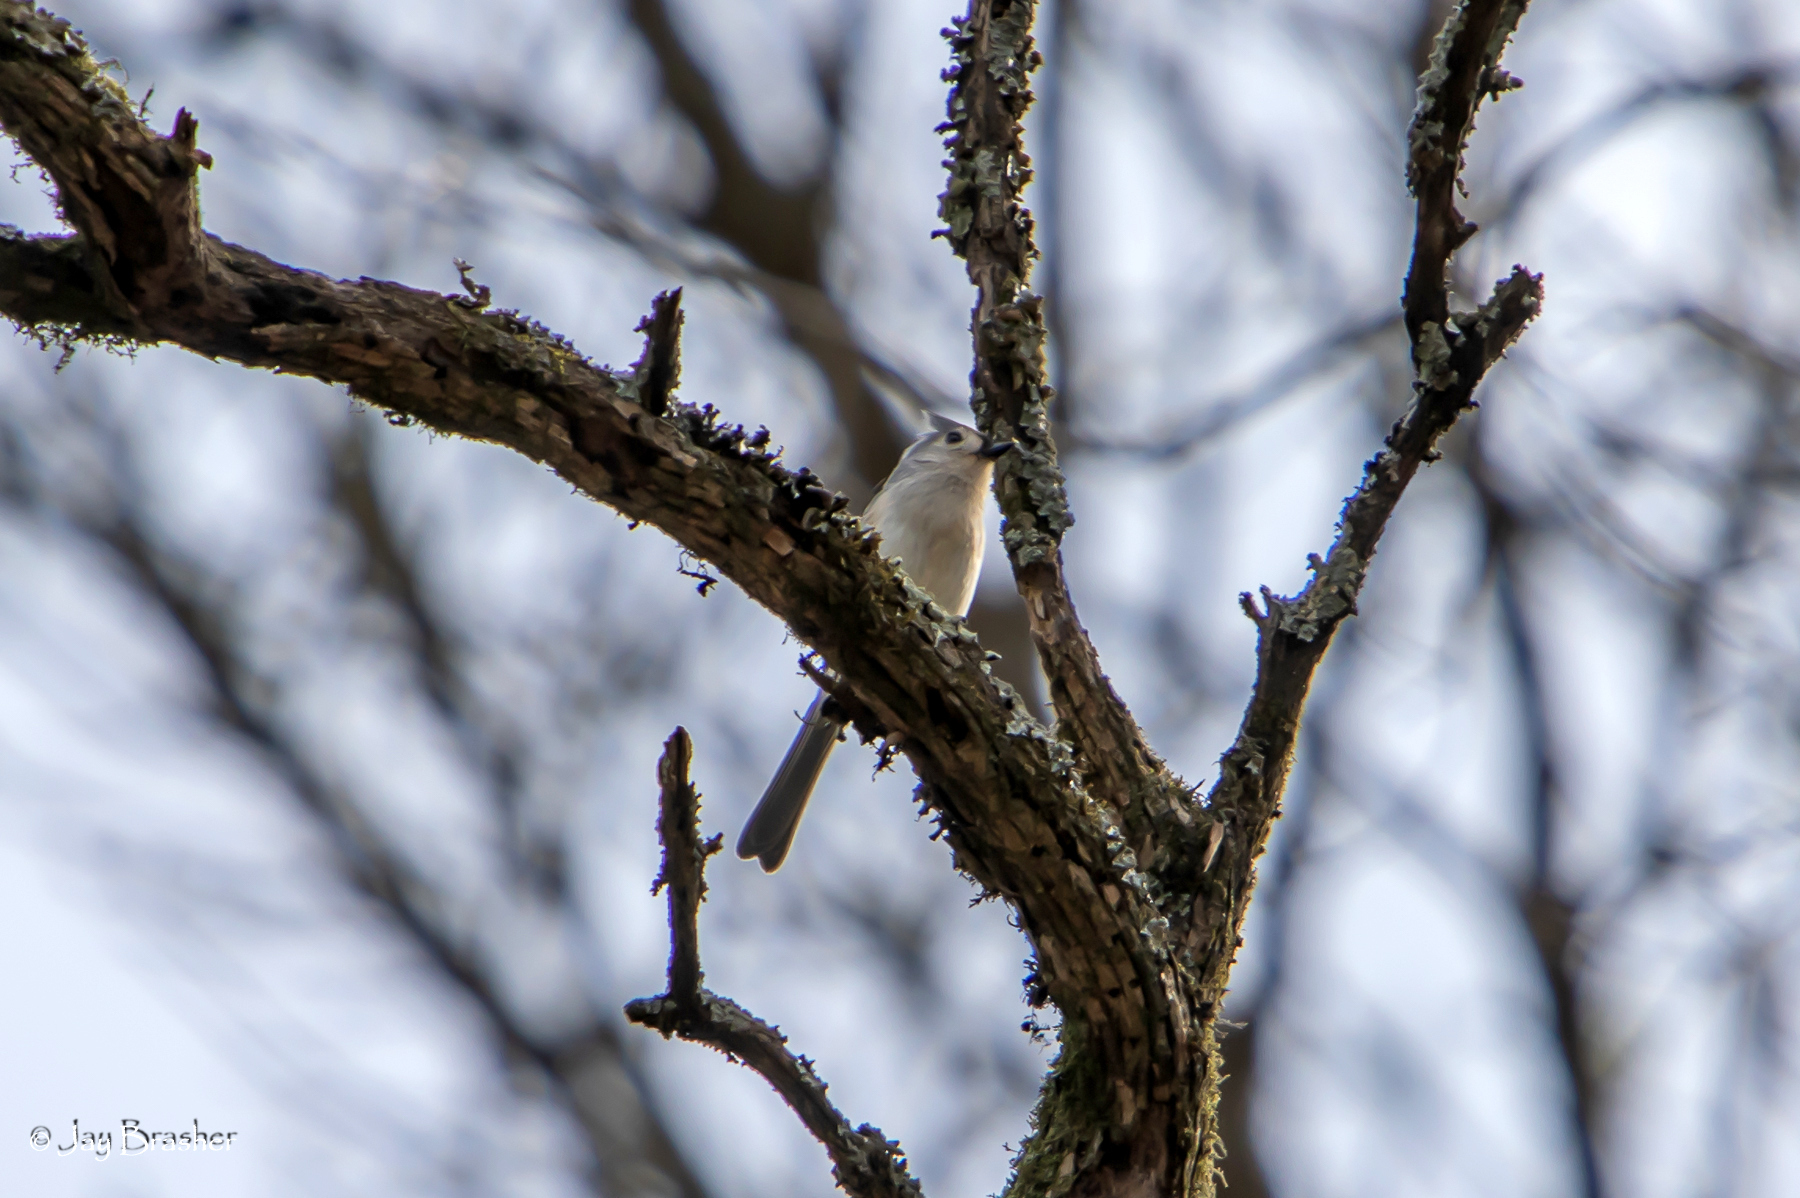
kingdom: Animalia
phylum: Chordata
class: Aves
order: Passeriformes
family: Paridae
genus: Baeolophus
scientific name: Baeolophus bicolor
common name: Tufted titmouse
